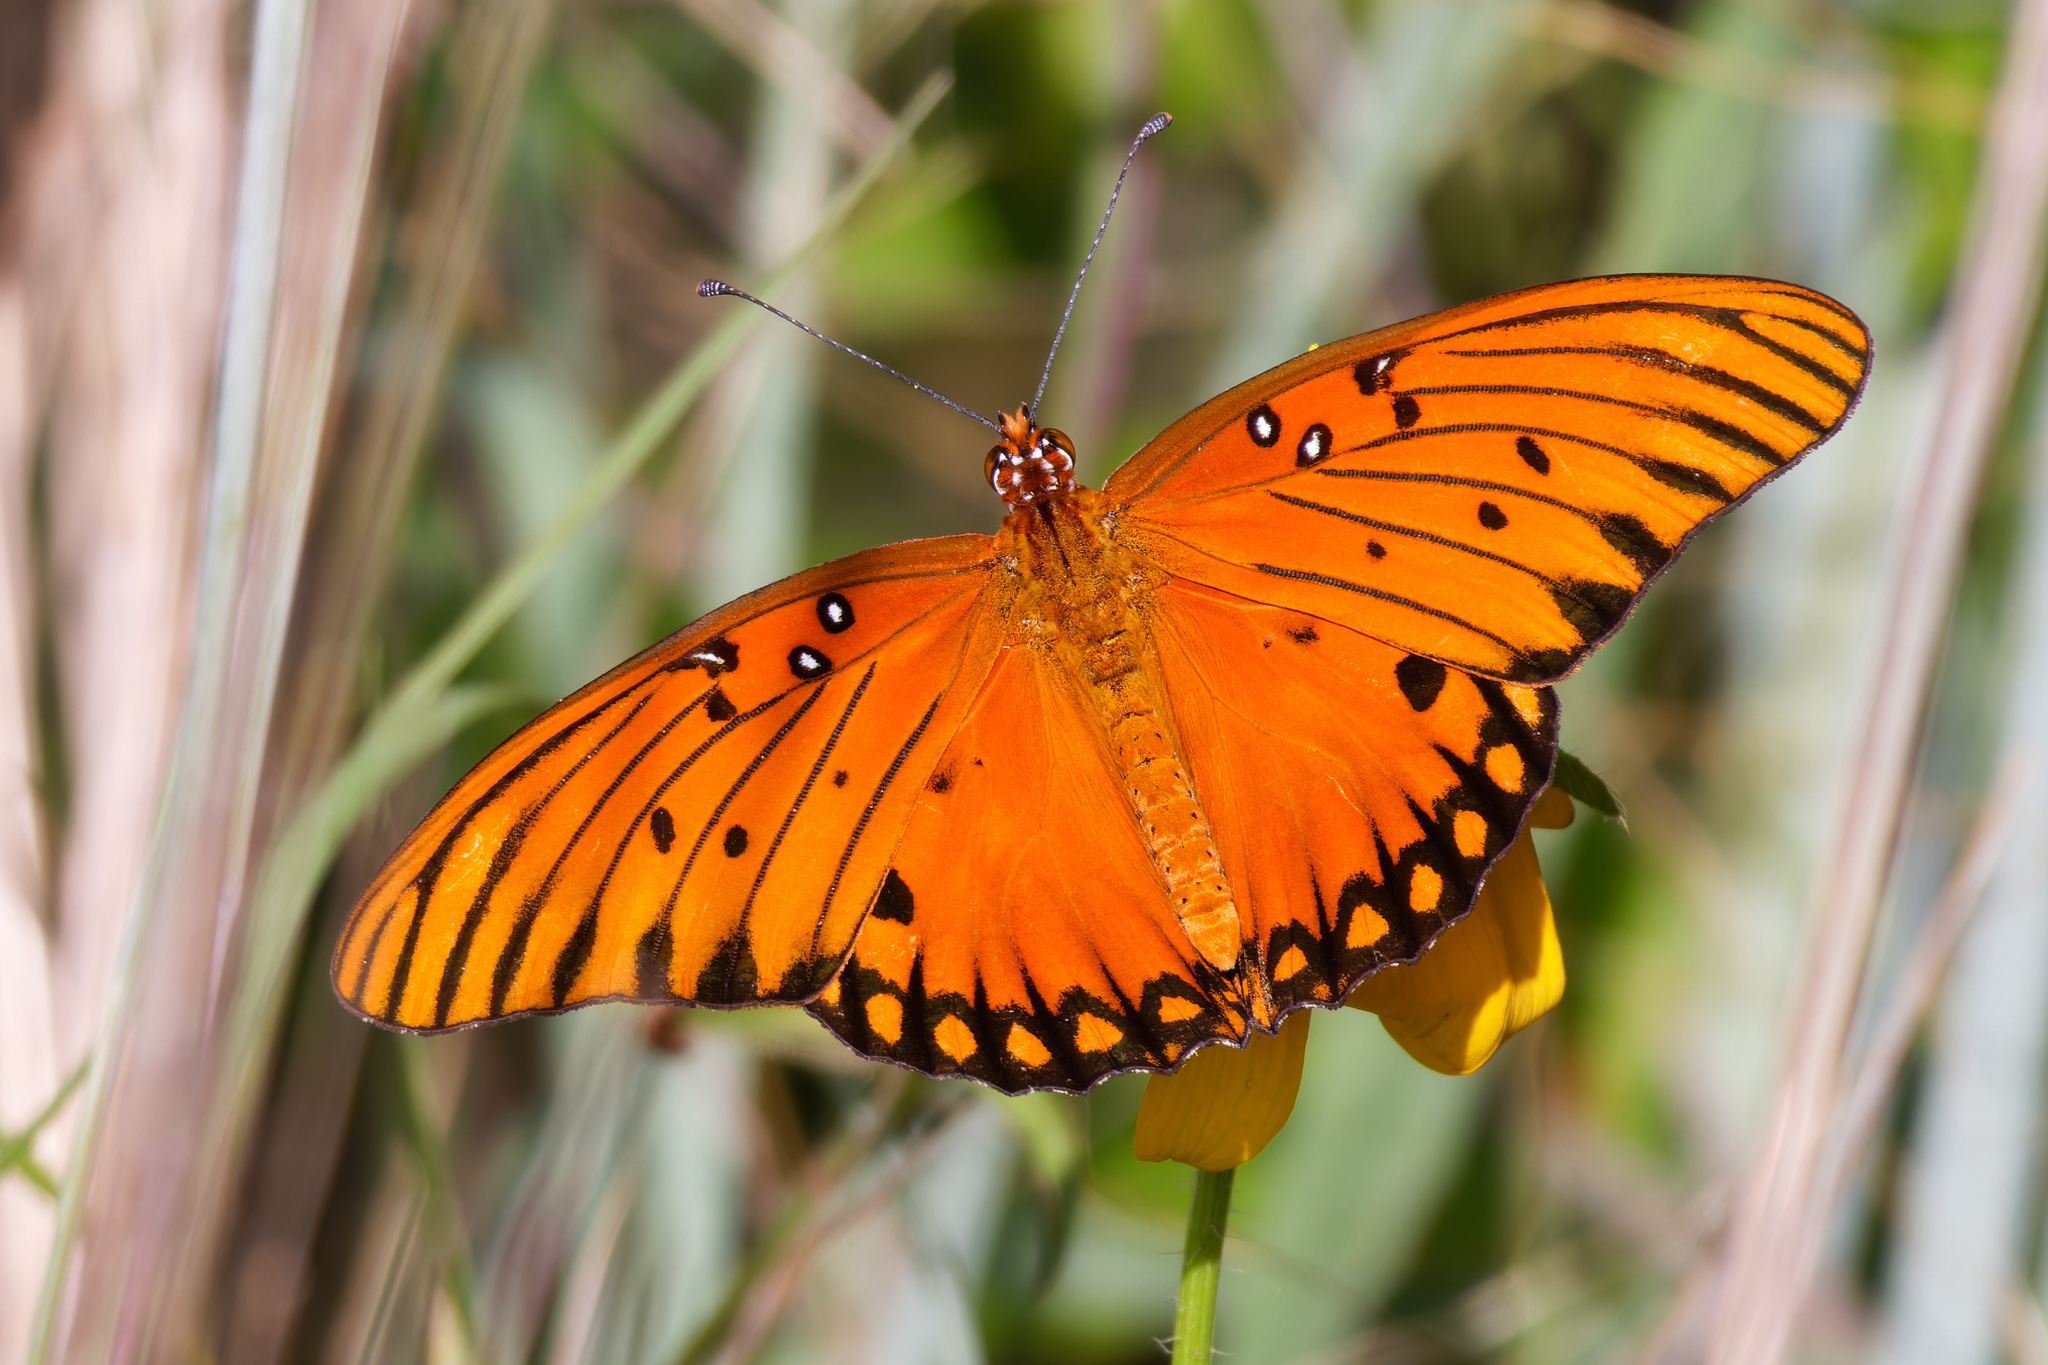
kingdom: Animalia
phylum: Arthropoda
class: Insecta
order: Lepidoptera
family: Nymphalidae
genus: Dione
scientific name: Dione vanillae
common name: Gulf fritillary
